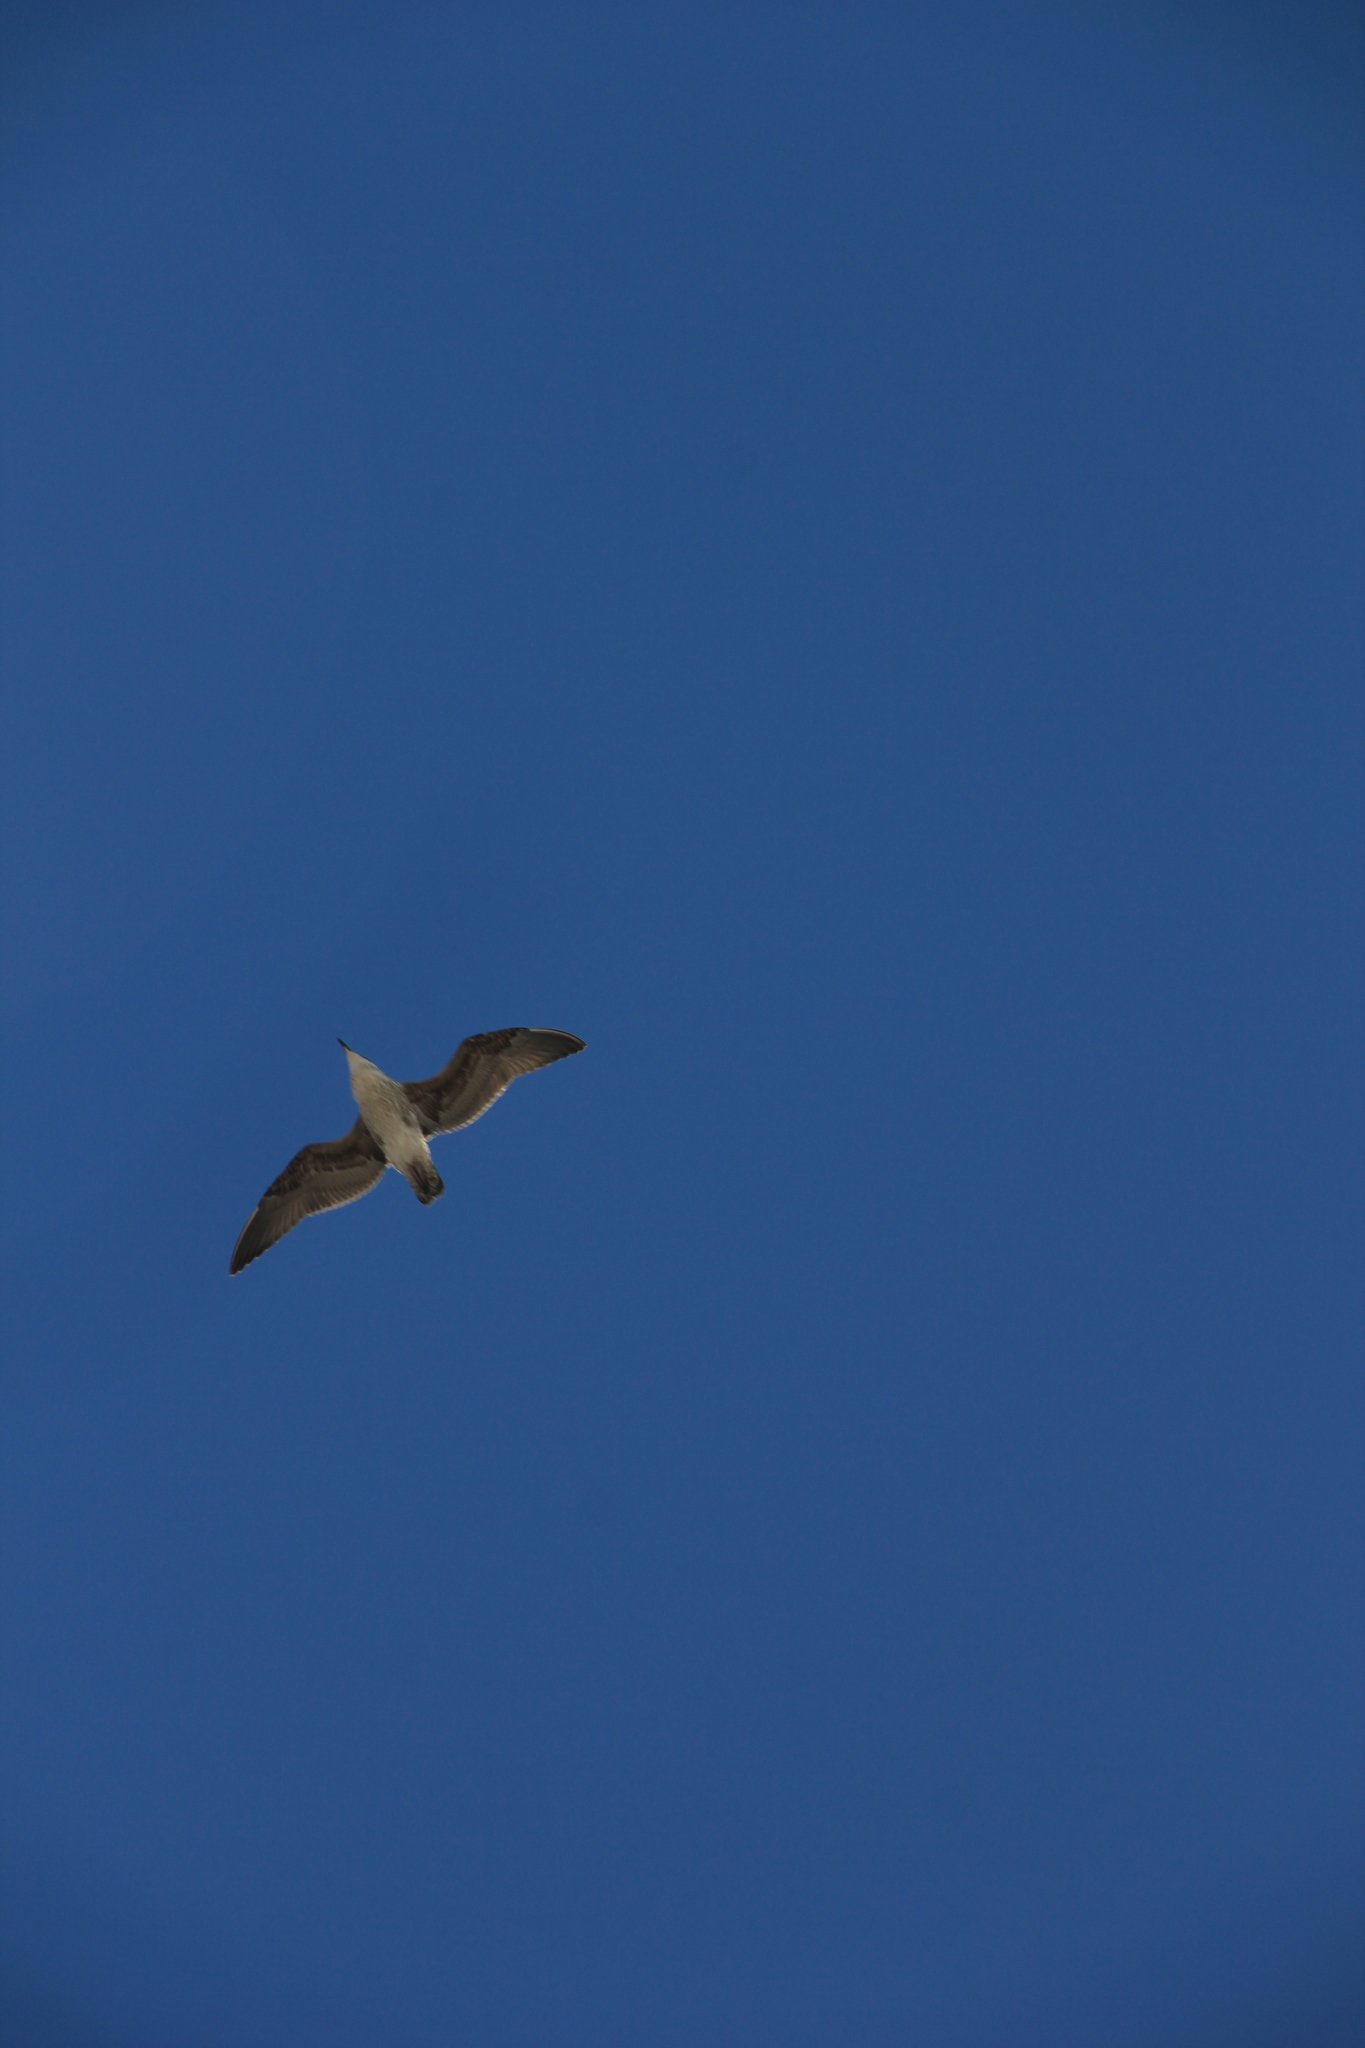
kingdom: Animalia
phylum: Chordata
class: Aves
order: Charadriiformes
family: Laridae
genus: Larus
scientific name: Larus dominicanus
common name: Kelp gull
